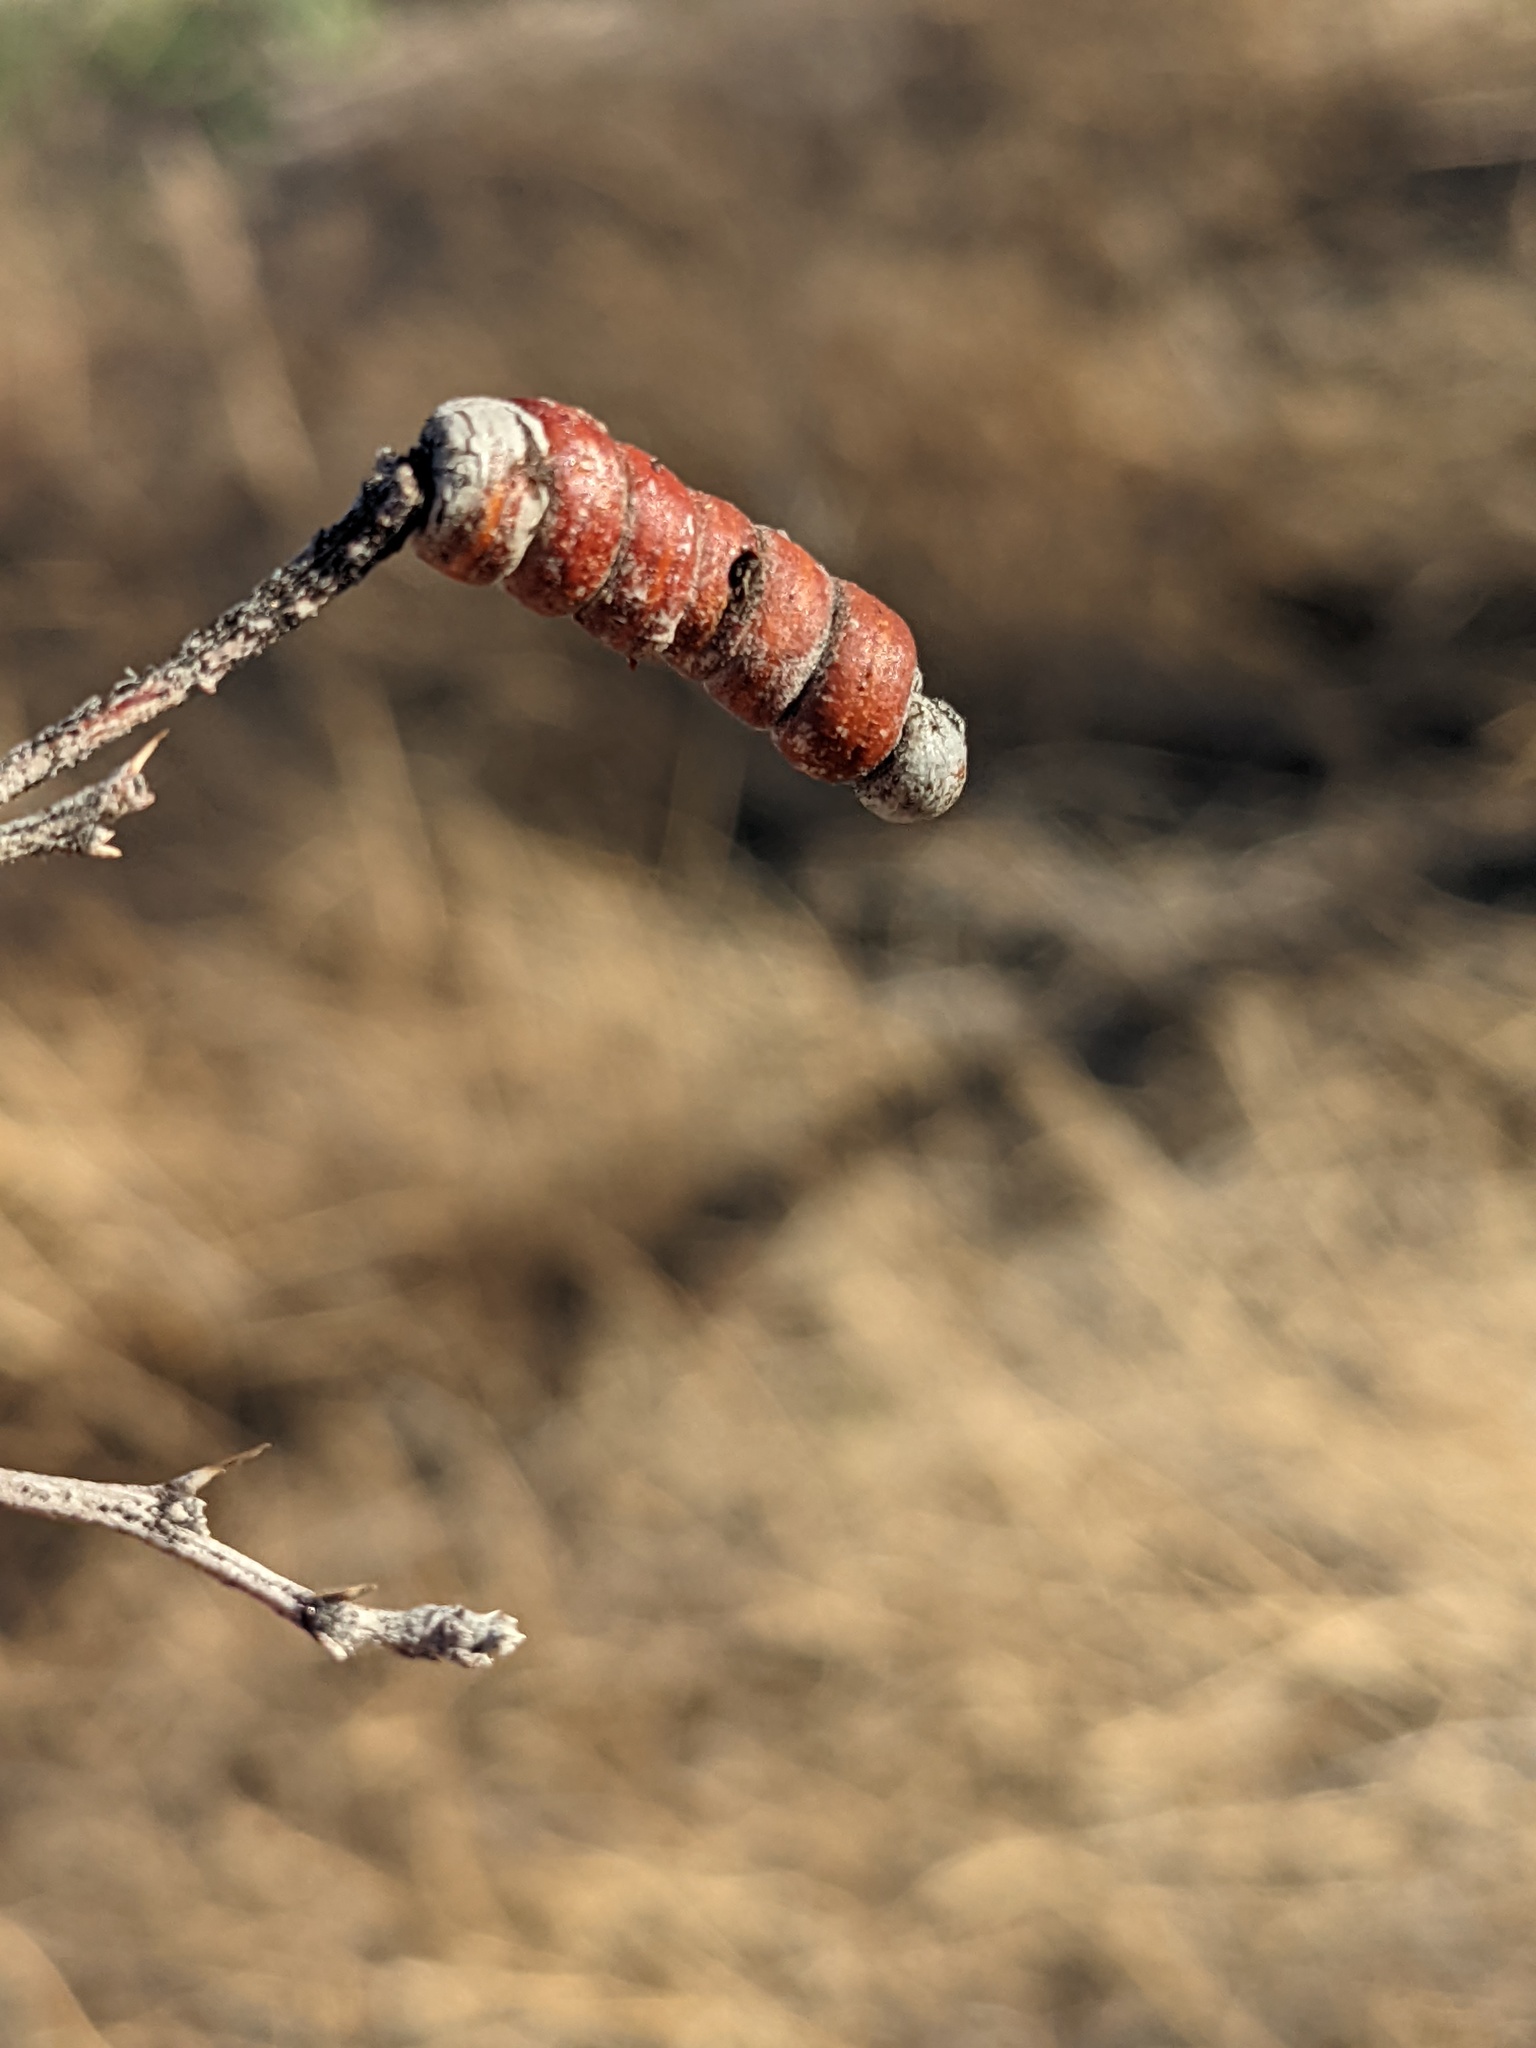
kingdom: Plantae
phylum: Tracheophyta
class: Magnoliopsida
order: Fabales
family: Fabaceae
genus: Prosopis
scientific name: Prosopis pubescens
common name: Screw-bean
